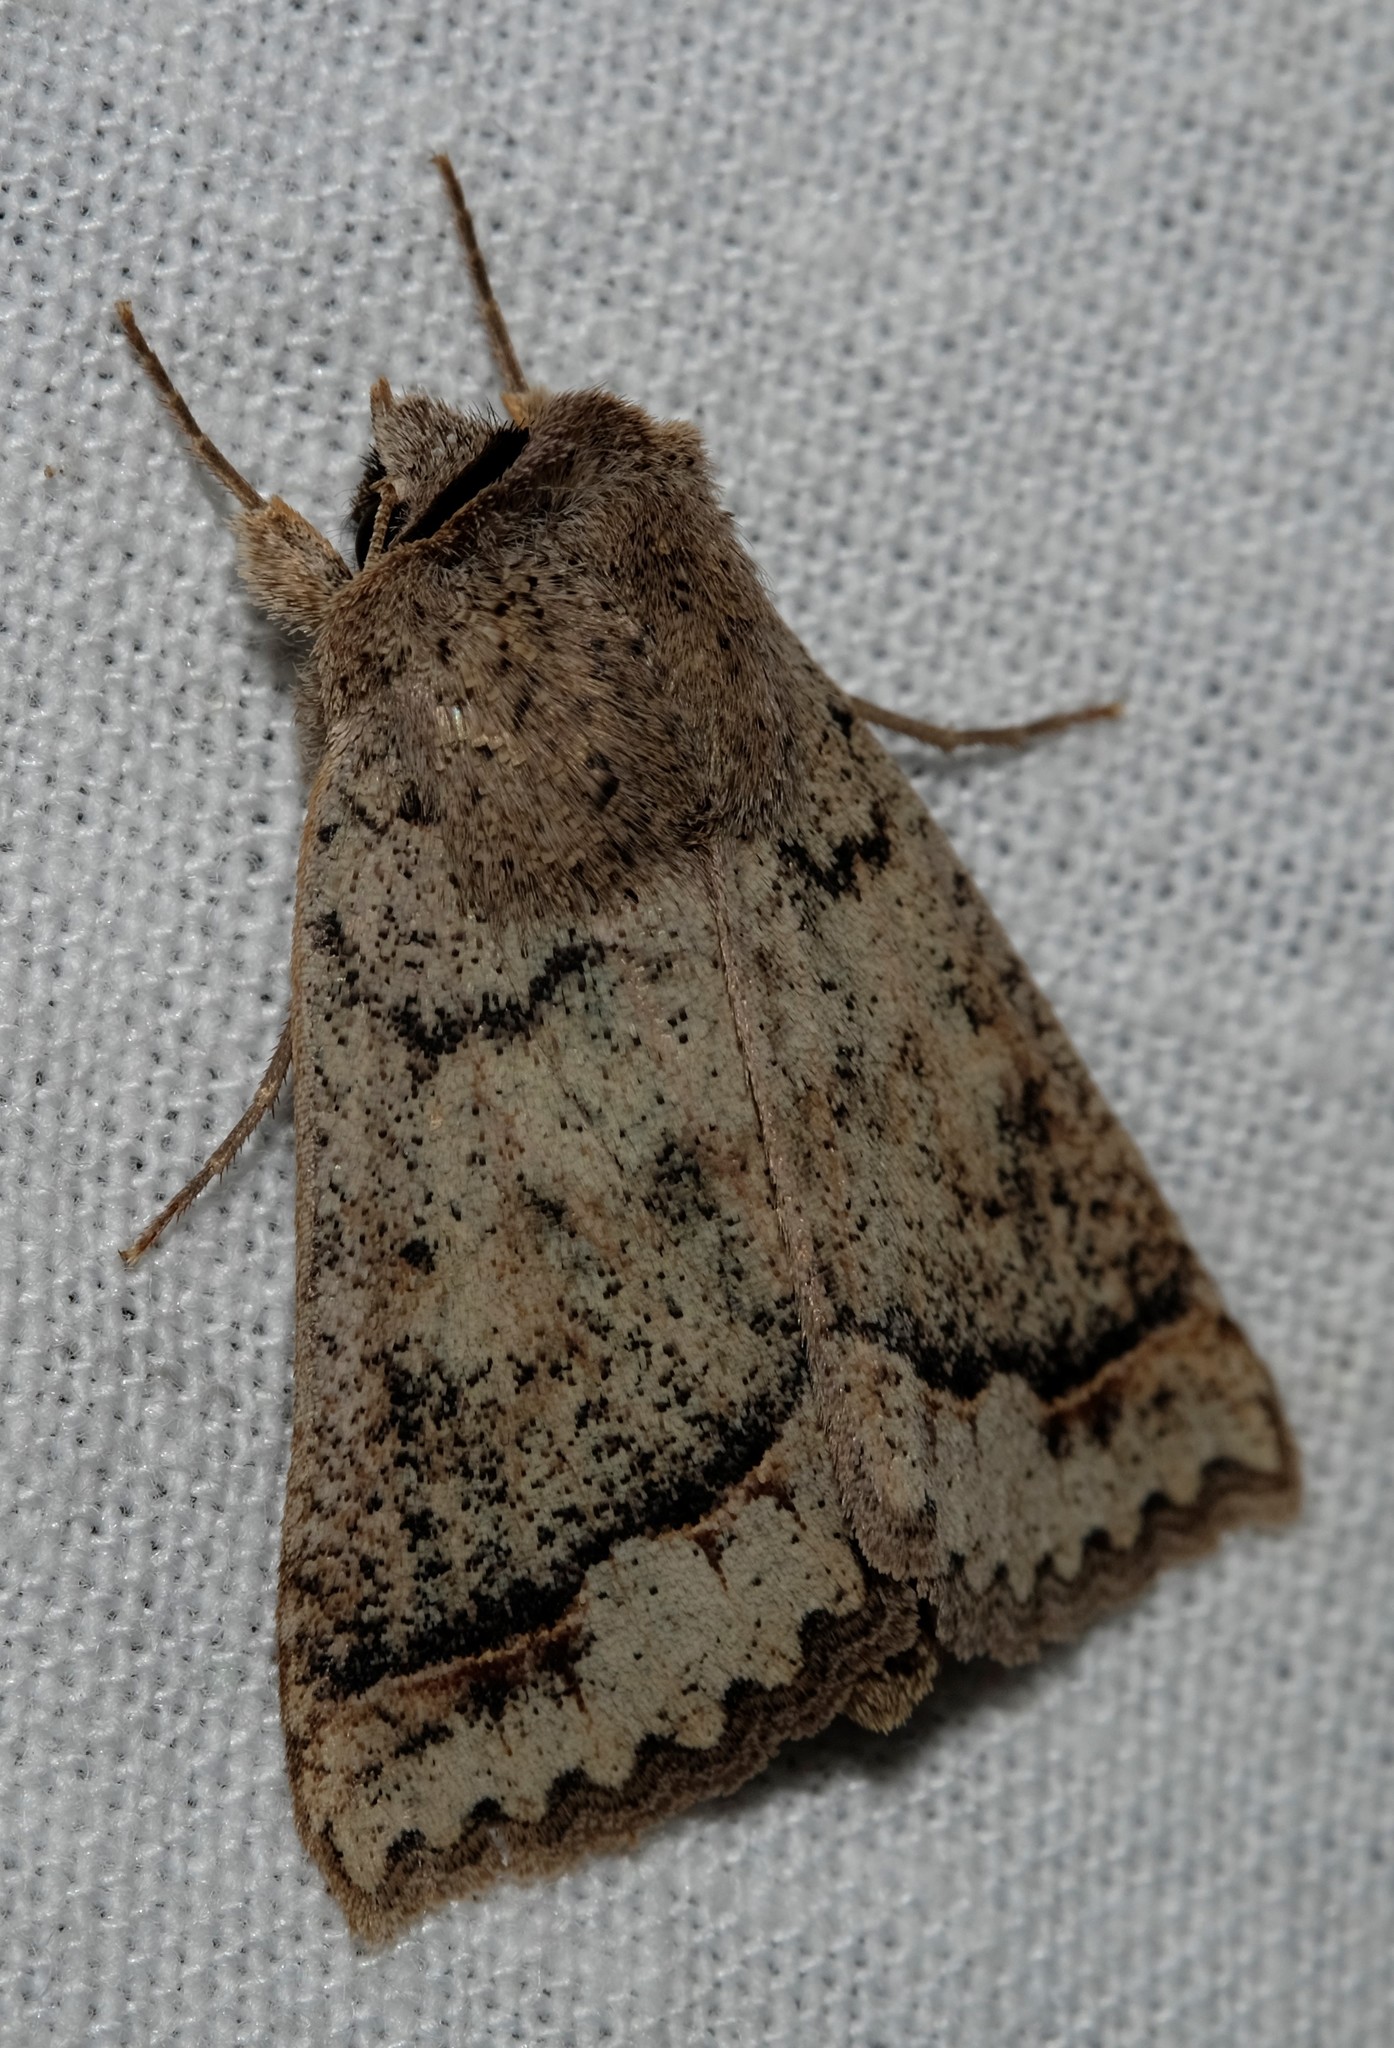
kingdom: Animalia
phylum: Arthropoda
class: Insecta
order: Lepidoptera
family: Erebidae
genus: Pantydia
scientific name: Pantydia diemeni
